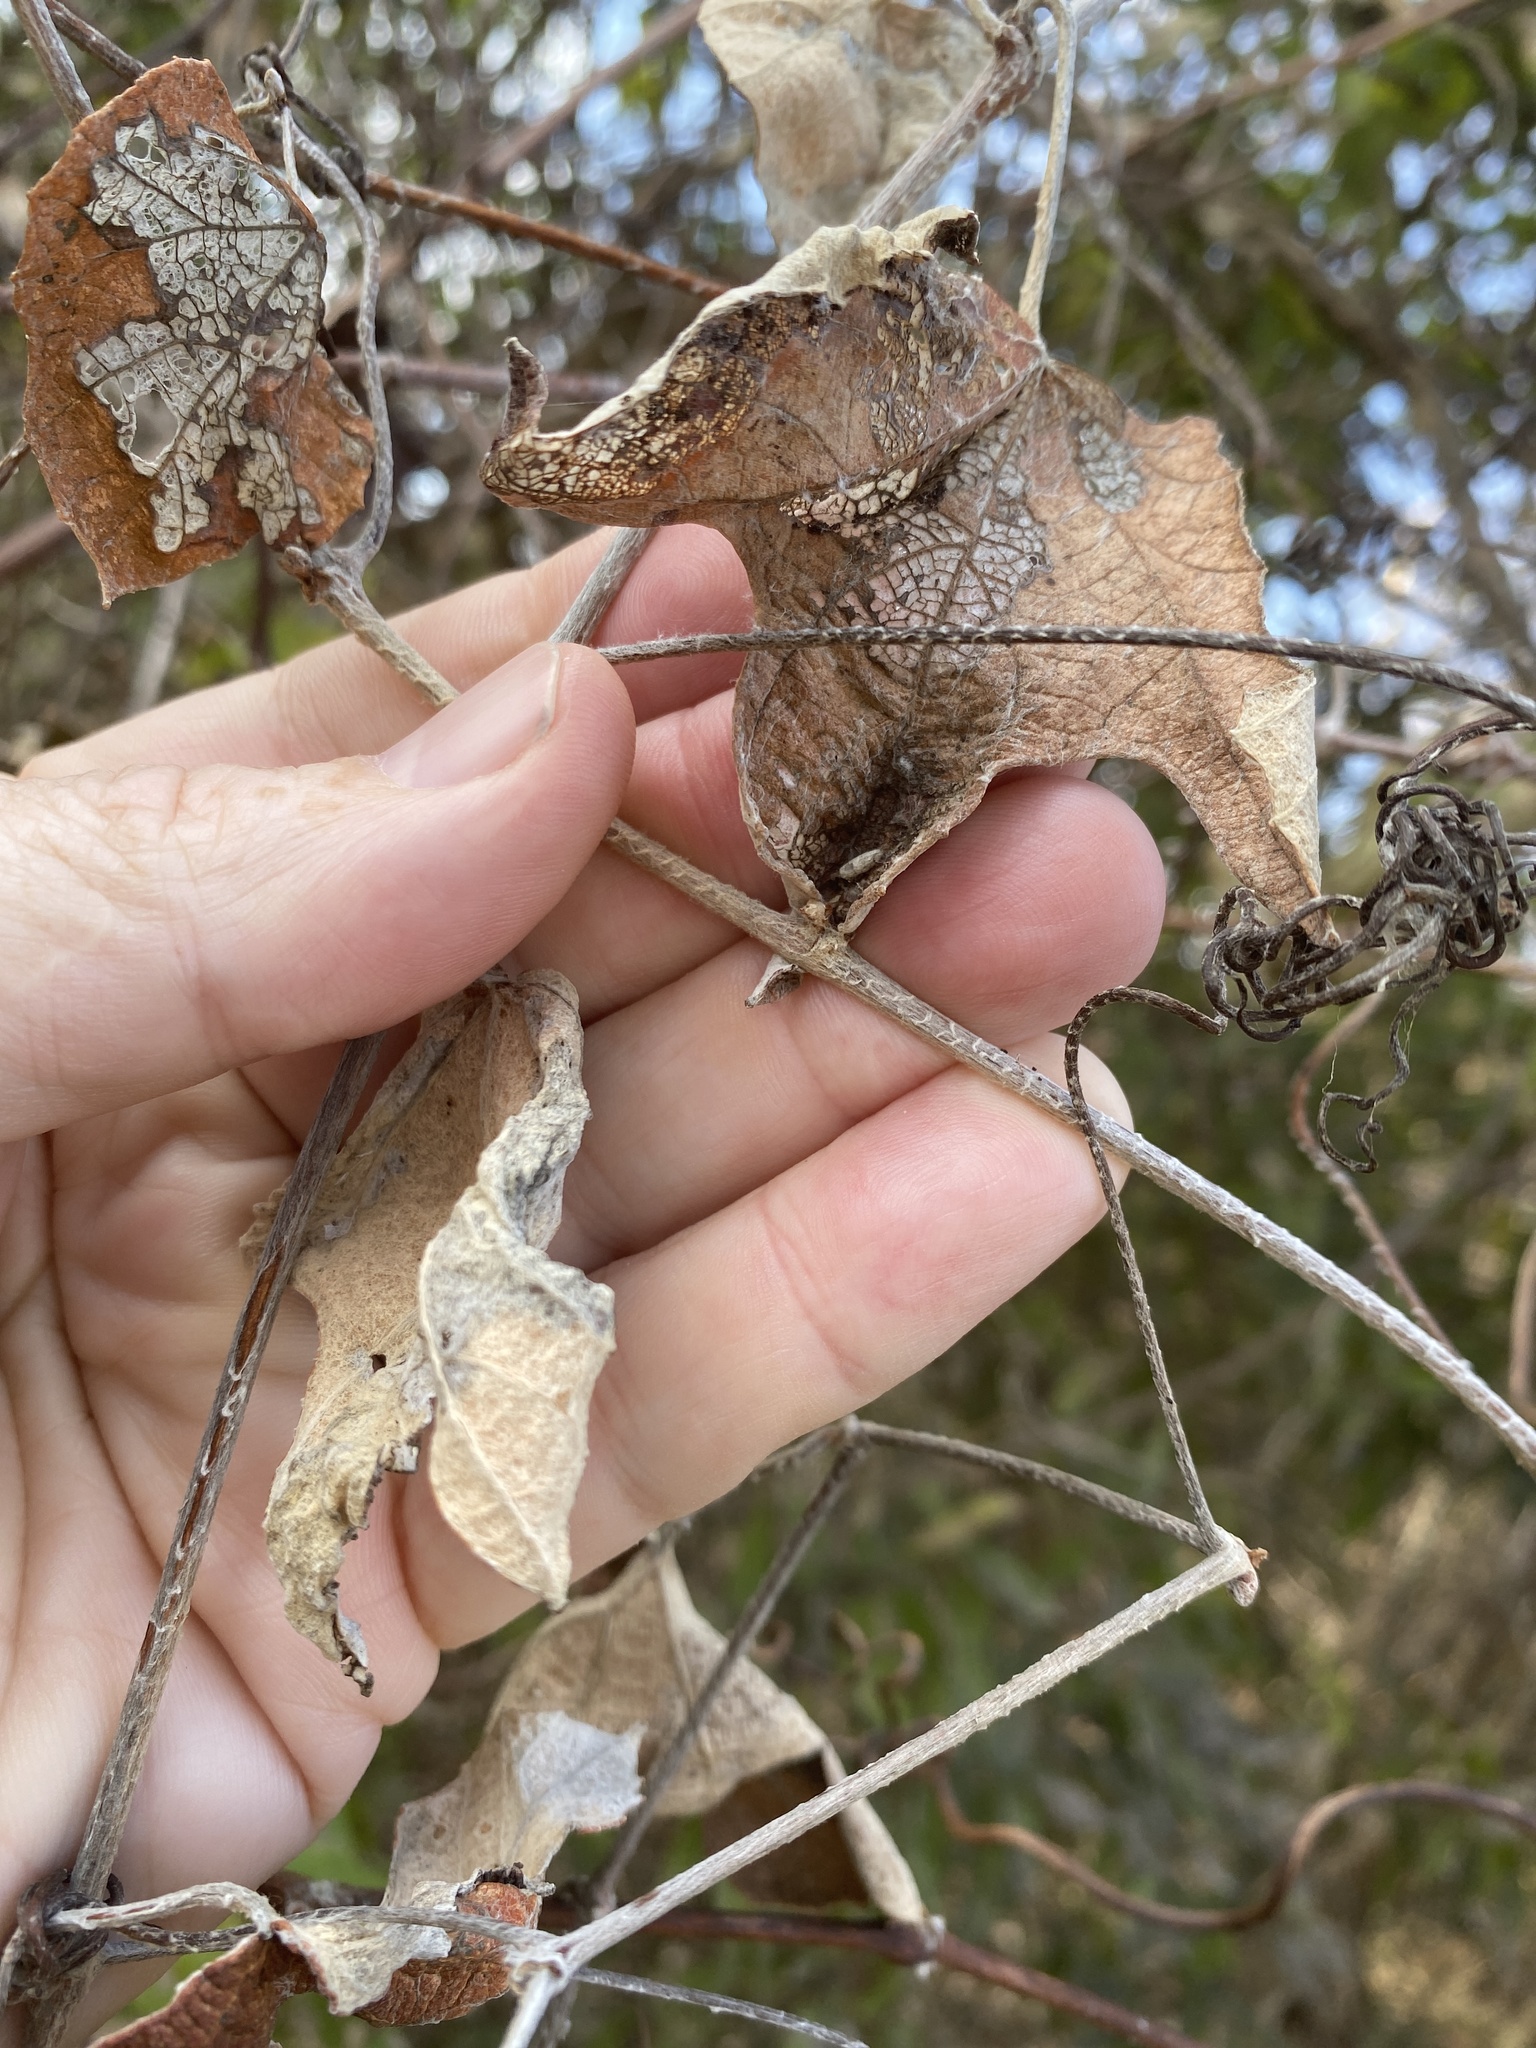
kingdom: Plantae
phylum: Tracheophyta
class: Magnoliopsida
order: Vitales
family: Vitaceae
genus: Vitis
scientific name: Vitis mustangensis
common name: Mustang grape
